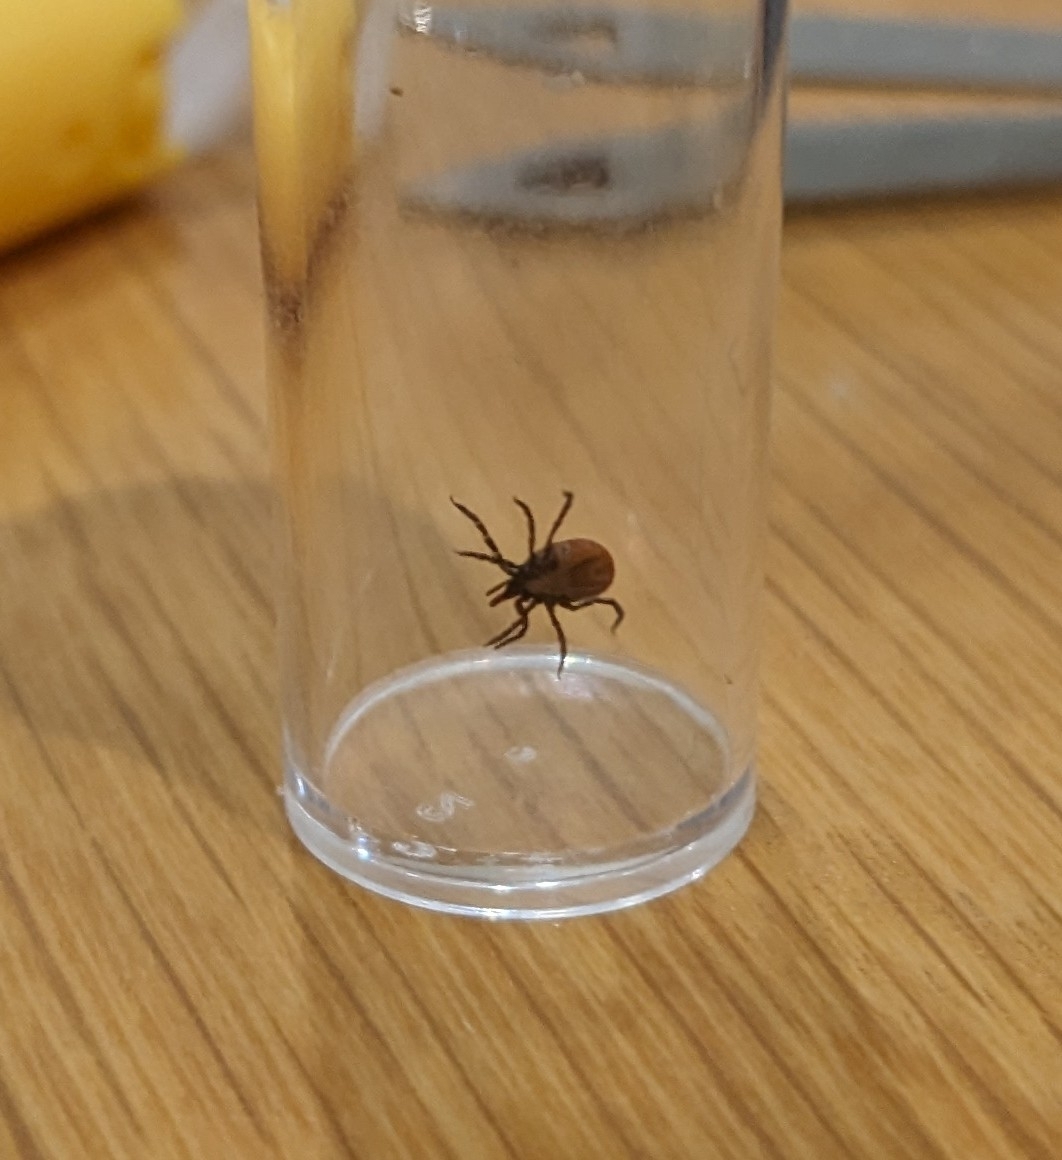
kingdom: Animalia
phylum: Arthropoda
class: Arachnida
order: Ixodida
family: Ixodidae
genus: Ixodes
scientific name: Ixodes ricinus
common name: Castor bean tick
